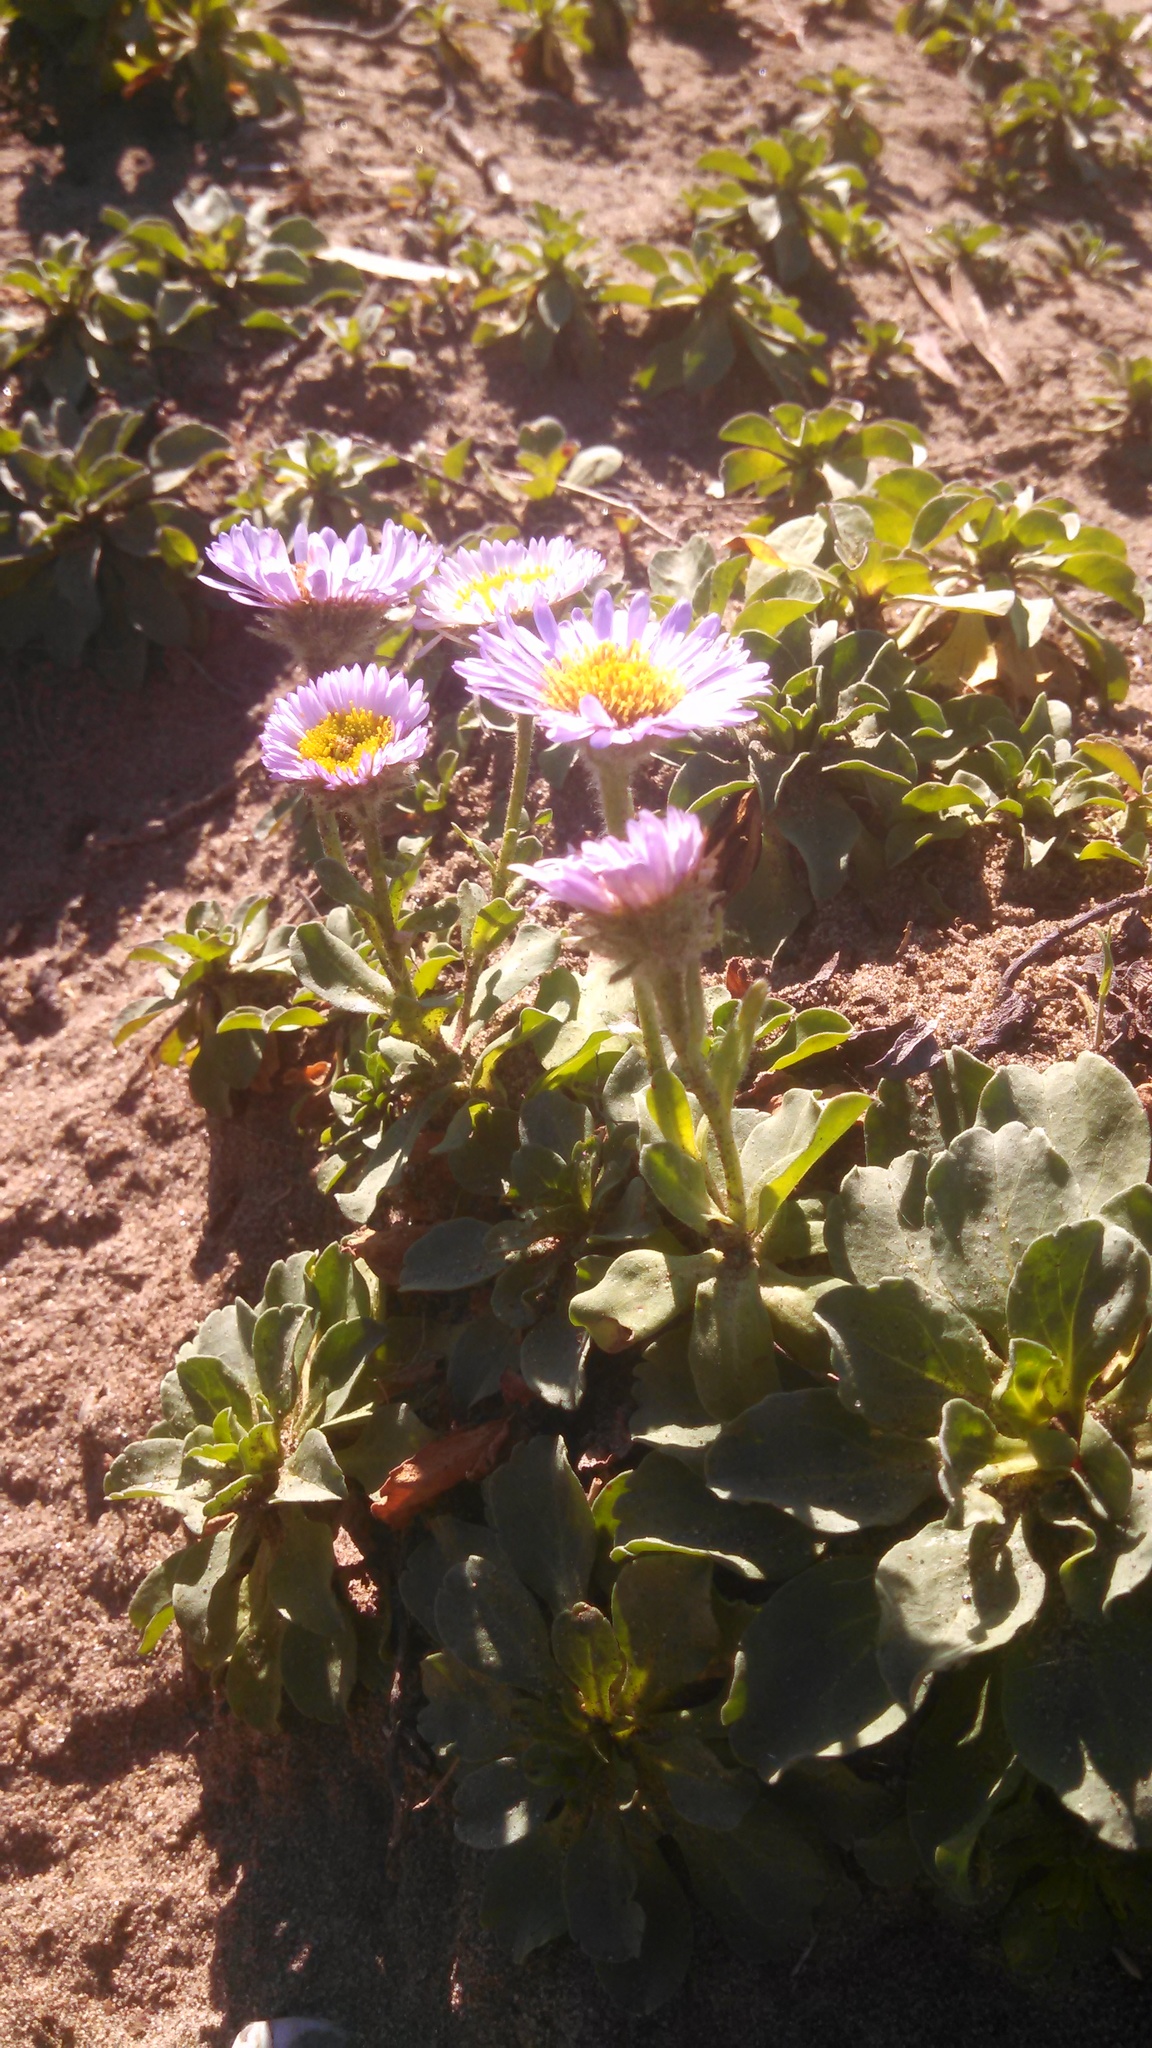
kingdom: Plantae
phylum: Tracheophyta
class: Magnoliopsida
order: Asterales
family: Asteraceae
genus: Erigeron
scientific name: Erigeron glaucus
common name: Seaside daisy
